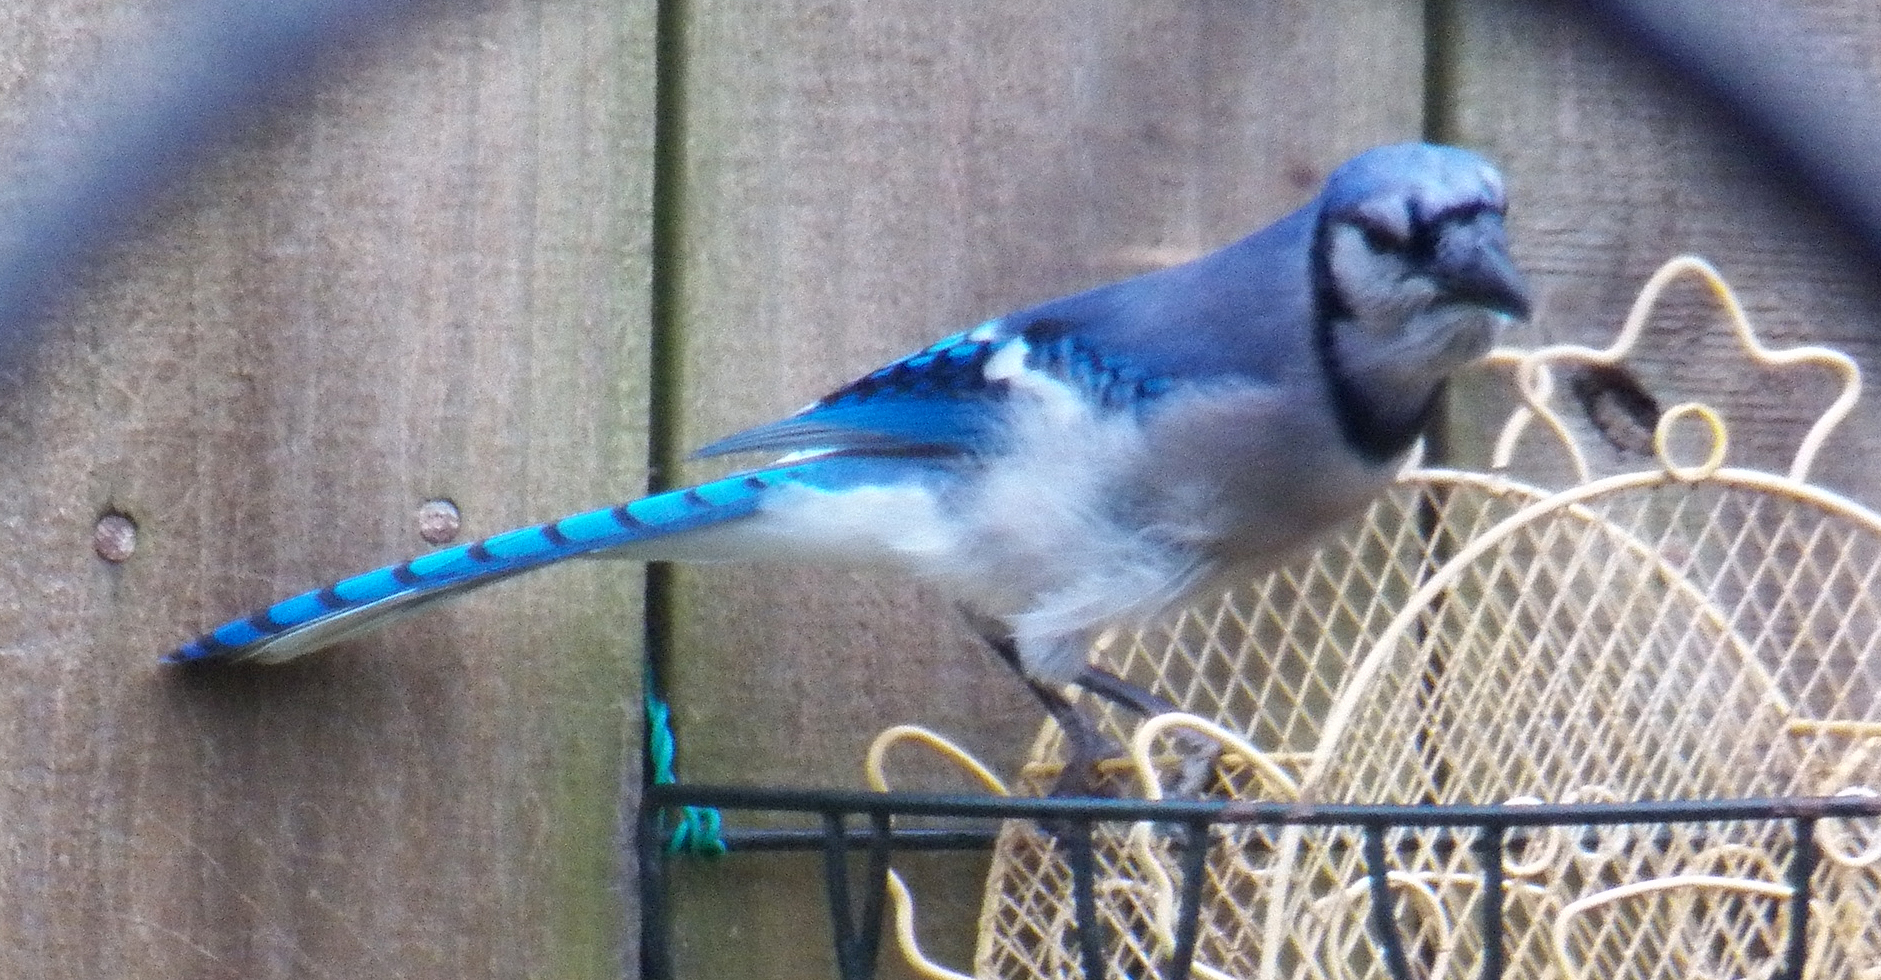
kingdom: Animalia
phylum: Chordata
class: Aves
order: Passeriformes
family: Corvidae
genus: Cyanocitta
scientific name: Cyanocitta cristata
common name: Blue jay
